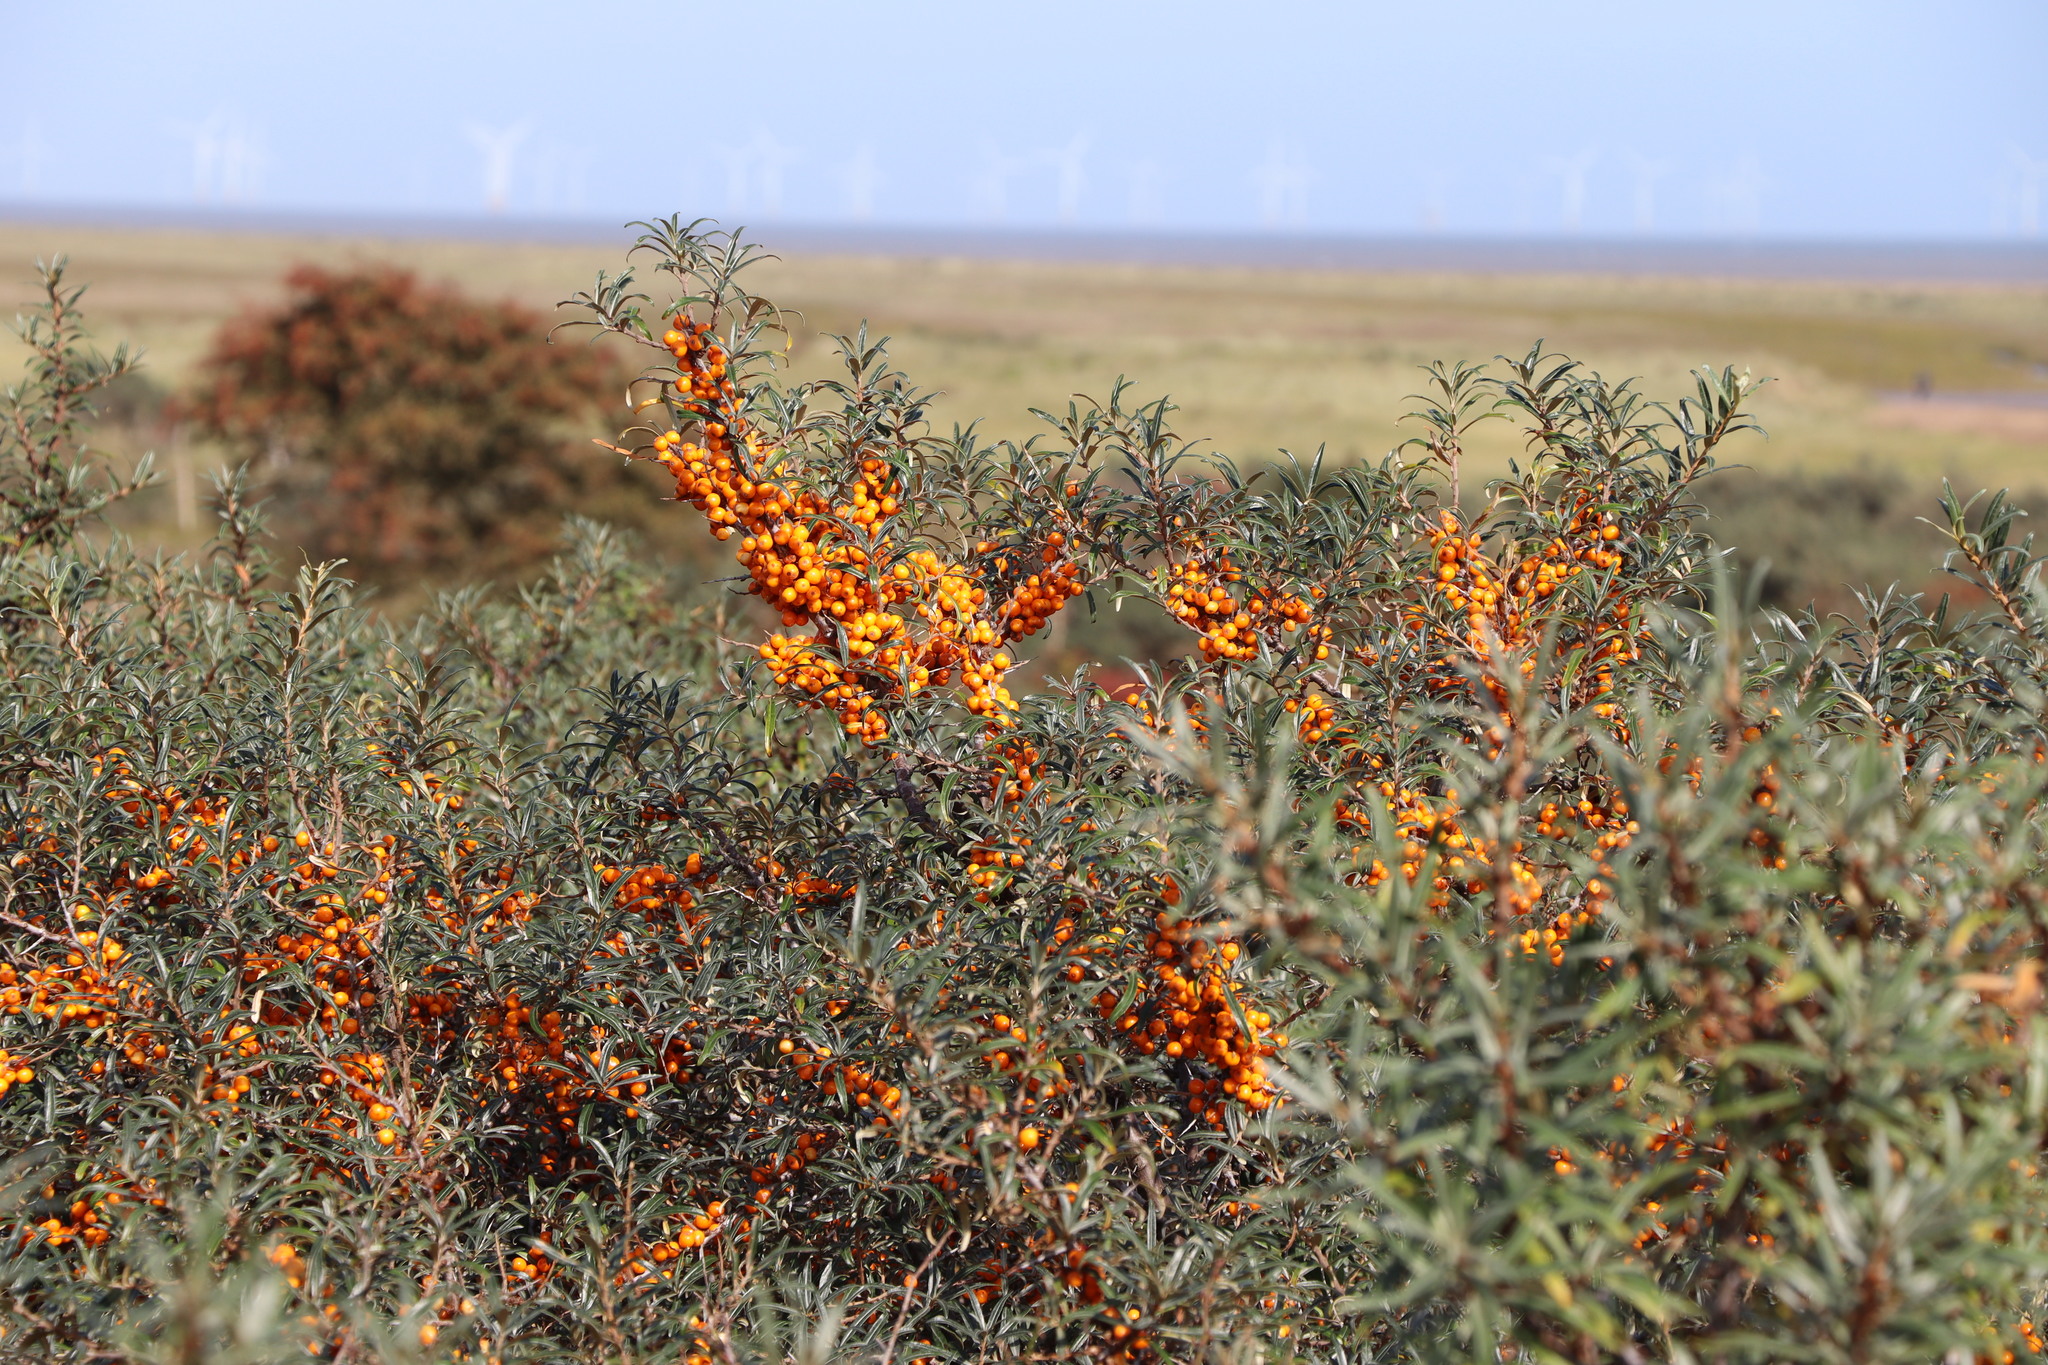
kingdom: Plantae
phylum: Tracheophyta
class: Magnoliopsida
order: Rosales
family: Elaeagnaceae
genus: Hippophae
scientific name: Hippophae rhamnoides
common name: Sea-buckthorn
